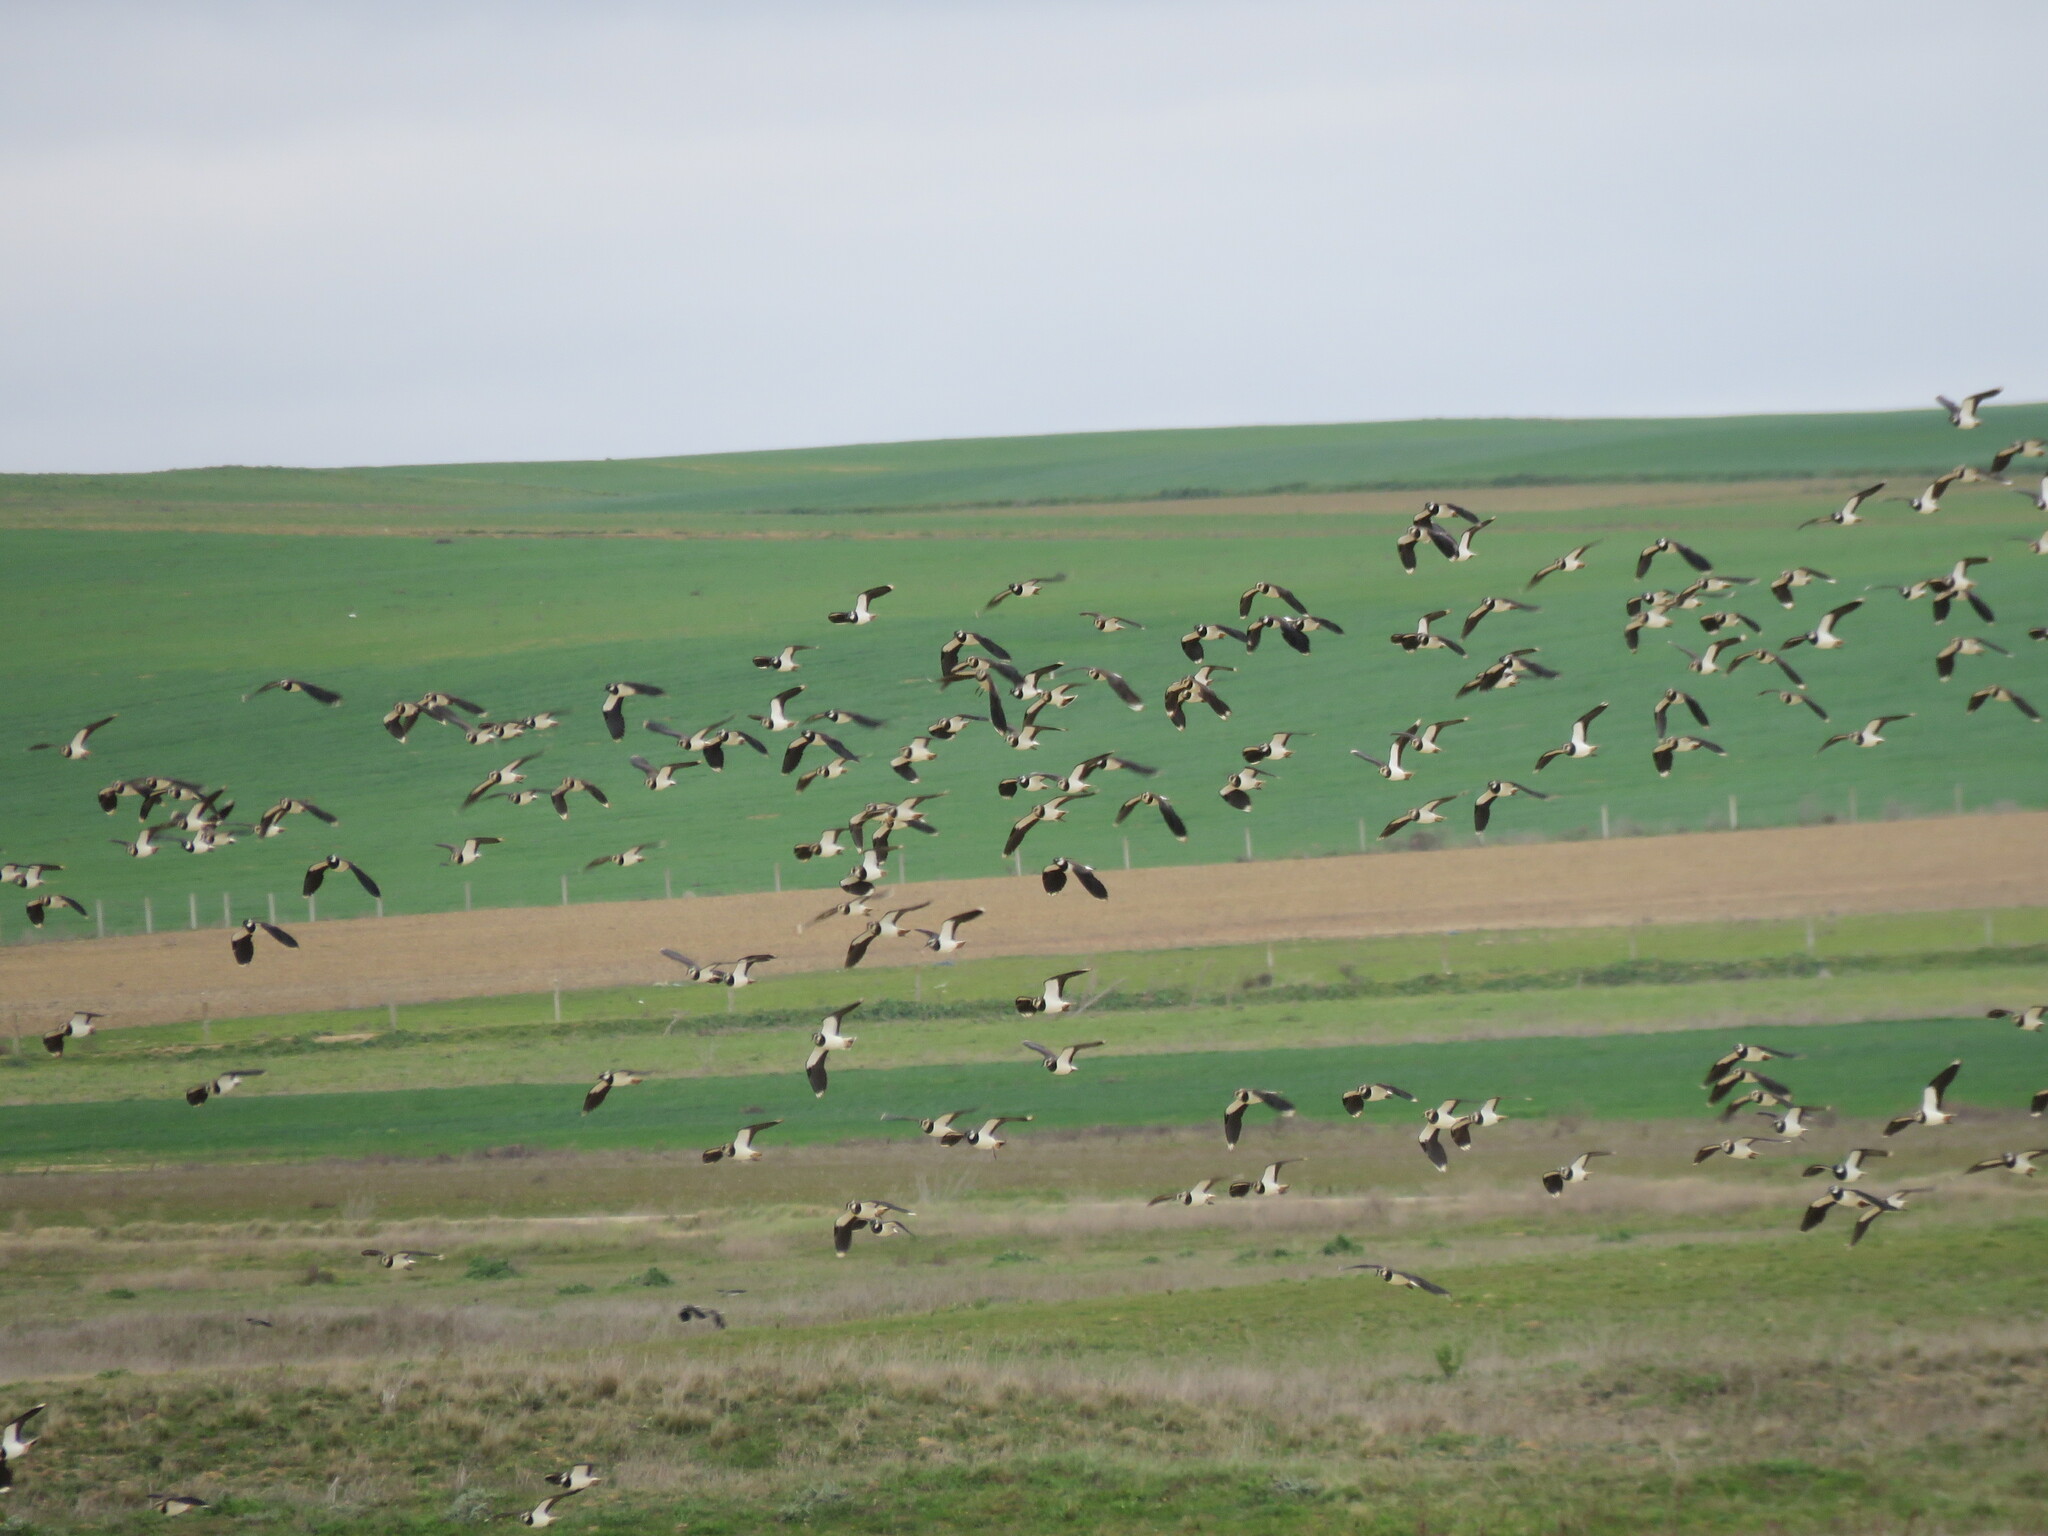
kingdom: Animalia
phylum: Chordata
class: Aves
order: Charadriiformes
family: Charadriidae
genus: Vanellus
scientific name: Vanellus vanellus
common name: Northern lapwing
